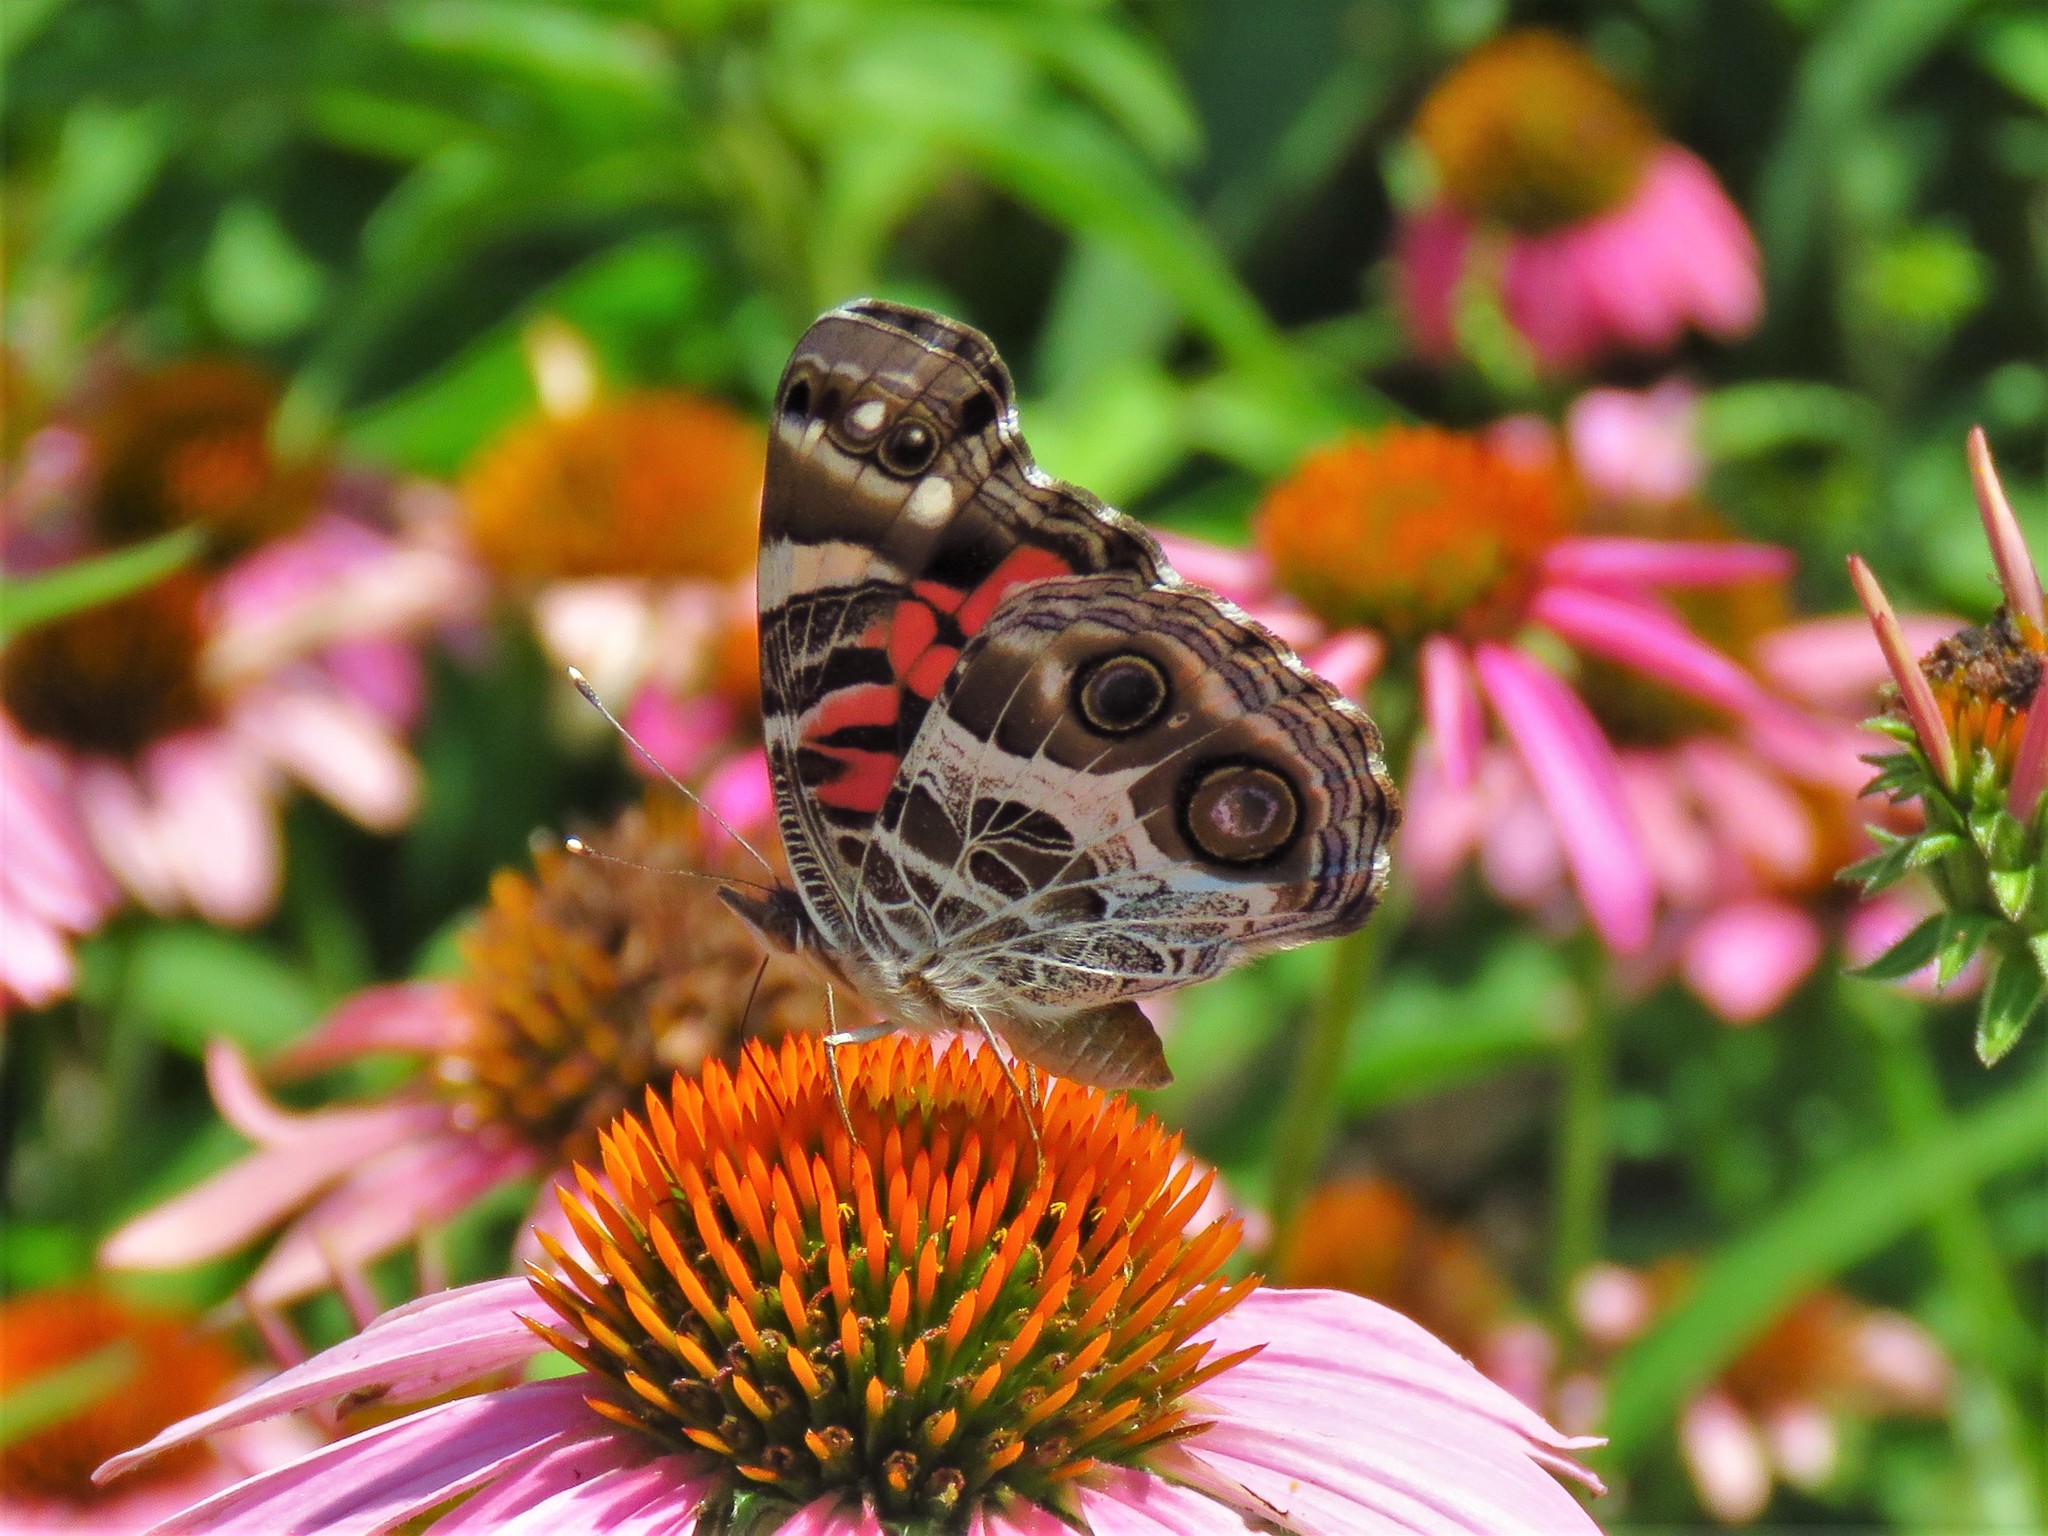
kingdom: Animalia
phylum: Arthropoda
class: Insecta
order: Lepidoptera
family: Nymphalidae
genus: Vanessa
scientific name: Vanessa virginiensis
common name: American lady
